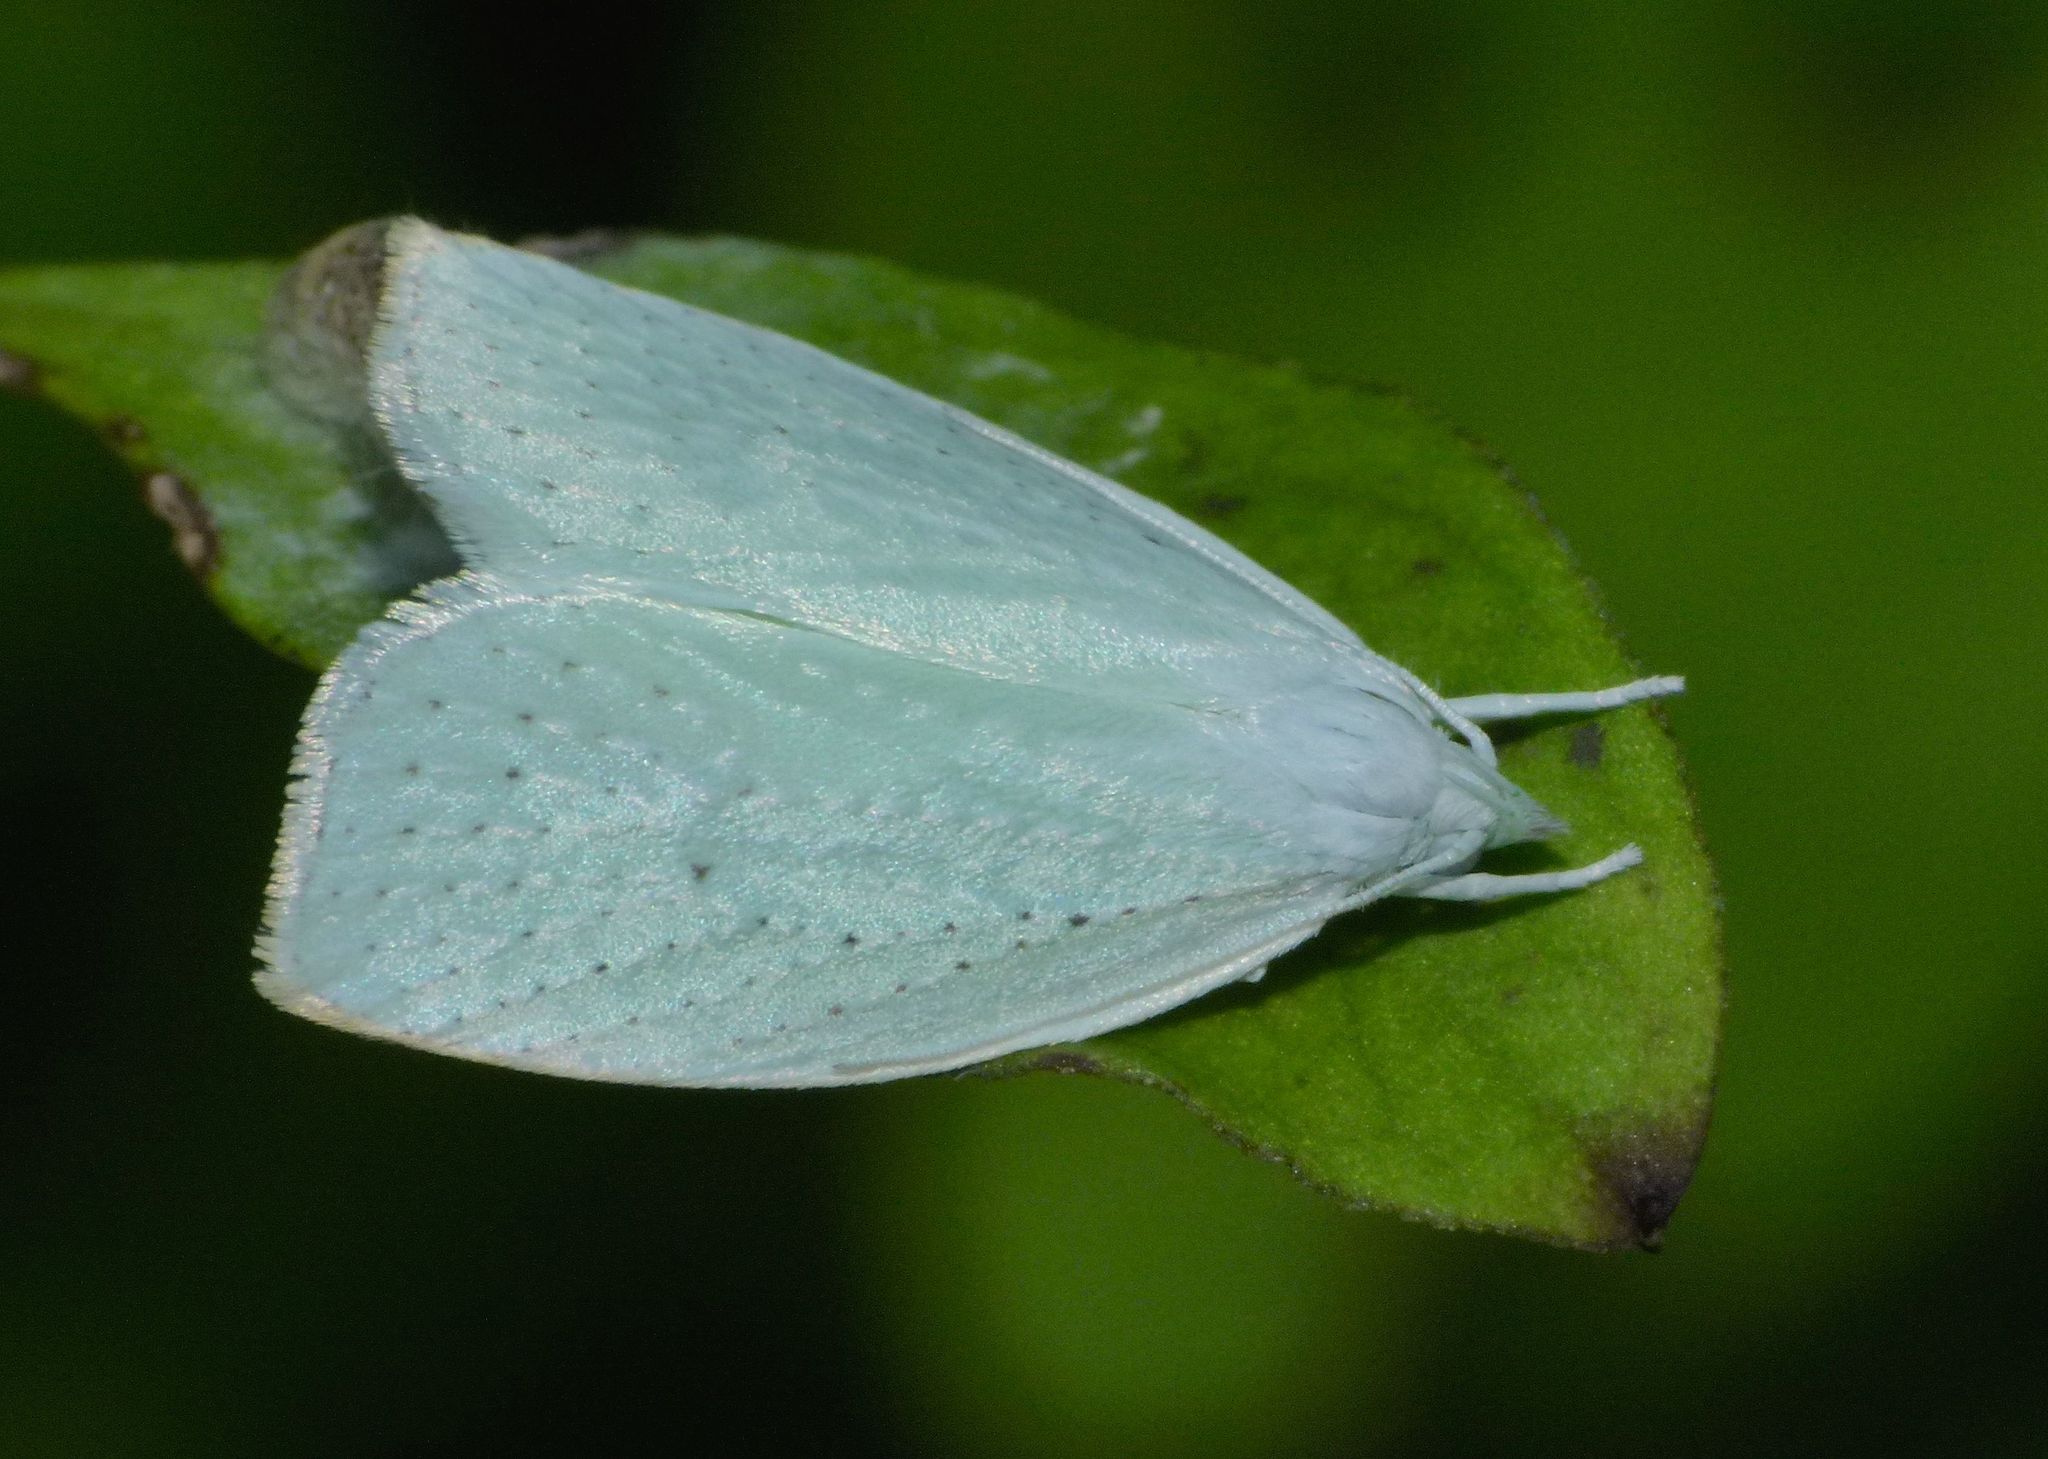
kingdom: Animalia
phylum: Arthropoda
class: Insecta
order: Lepidoptera
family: Oecophoridae
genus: Nymphostola
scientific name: Nymphostola galactina
